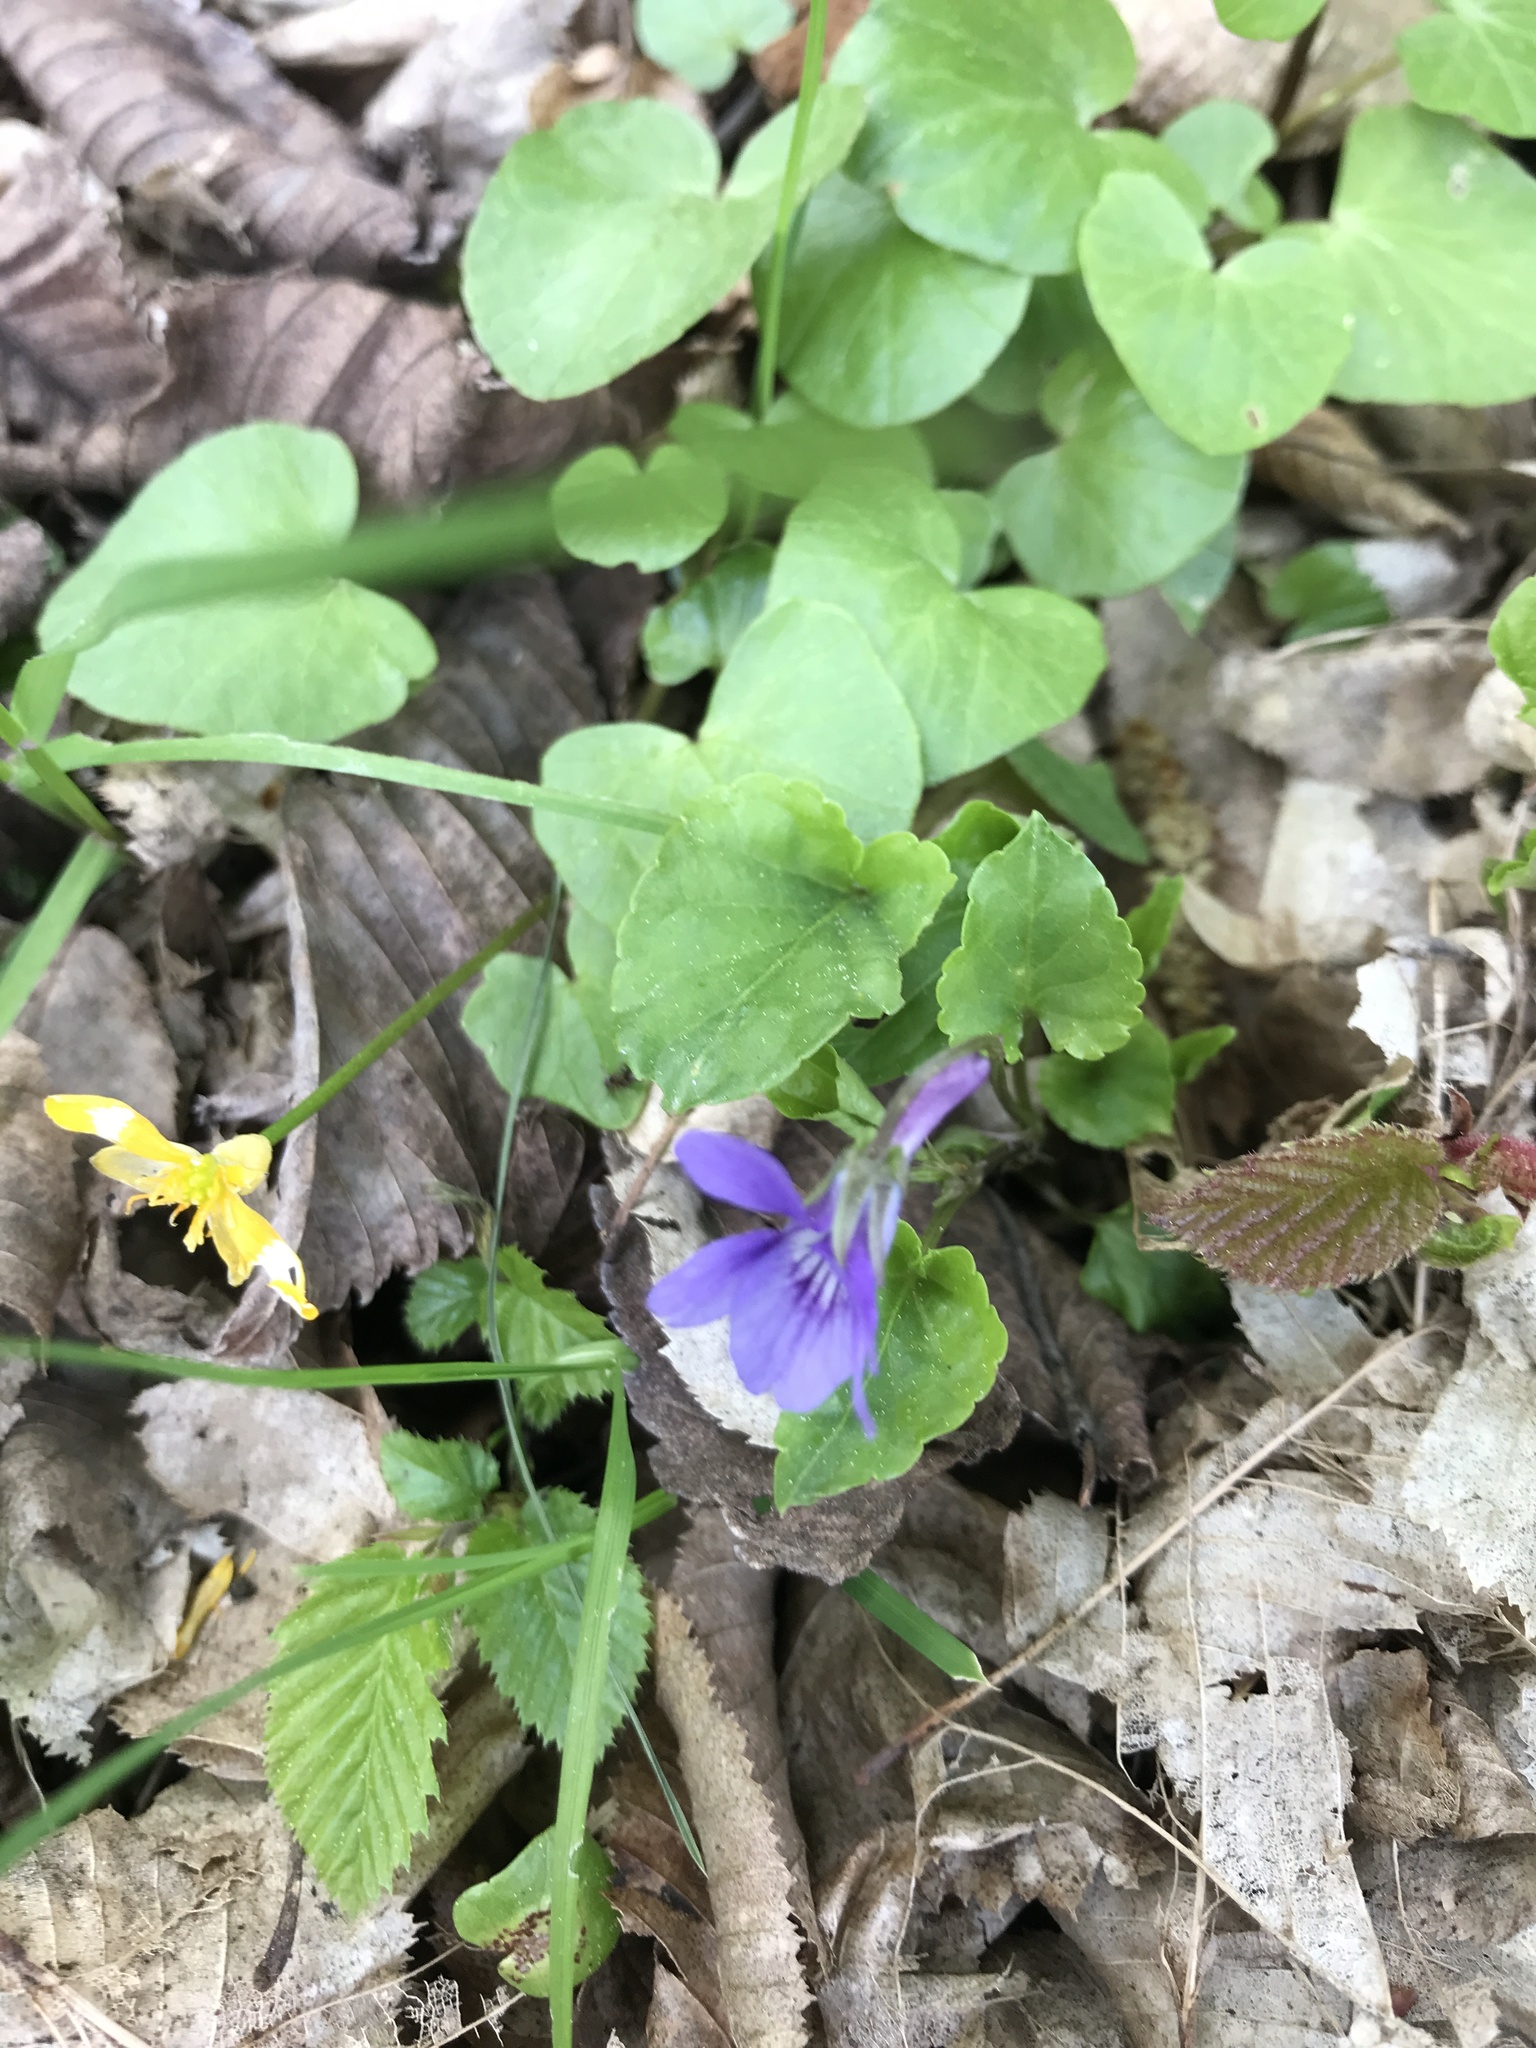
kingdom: Plantae
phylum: Tracheophyta
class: Magnoliopsida
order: Malpighiales
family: Violaceae
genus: Viola
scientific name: Viola reichenbachiana
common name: Early dog-violet
